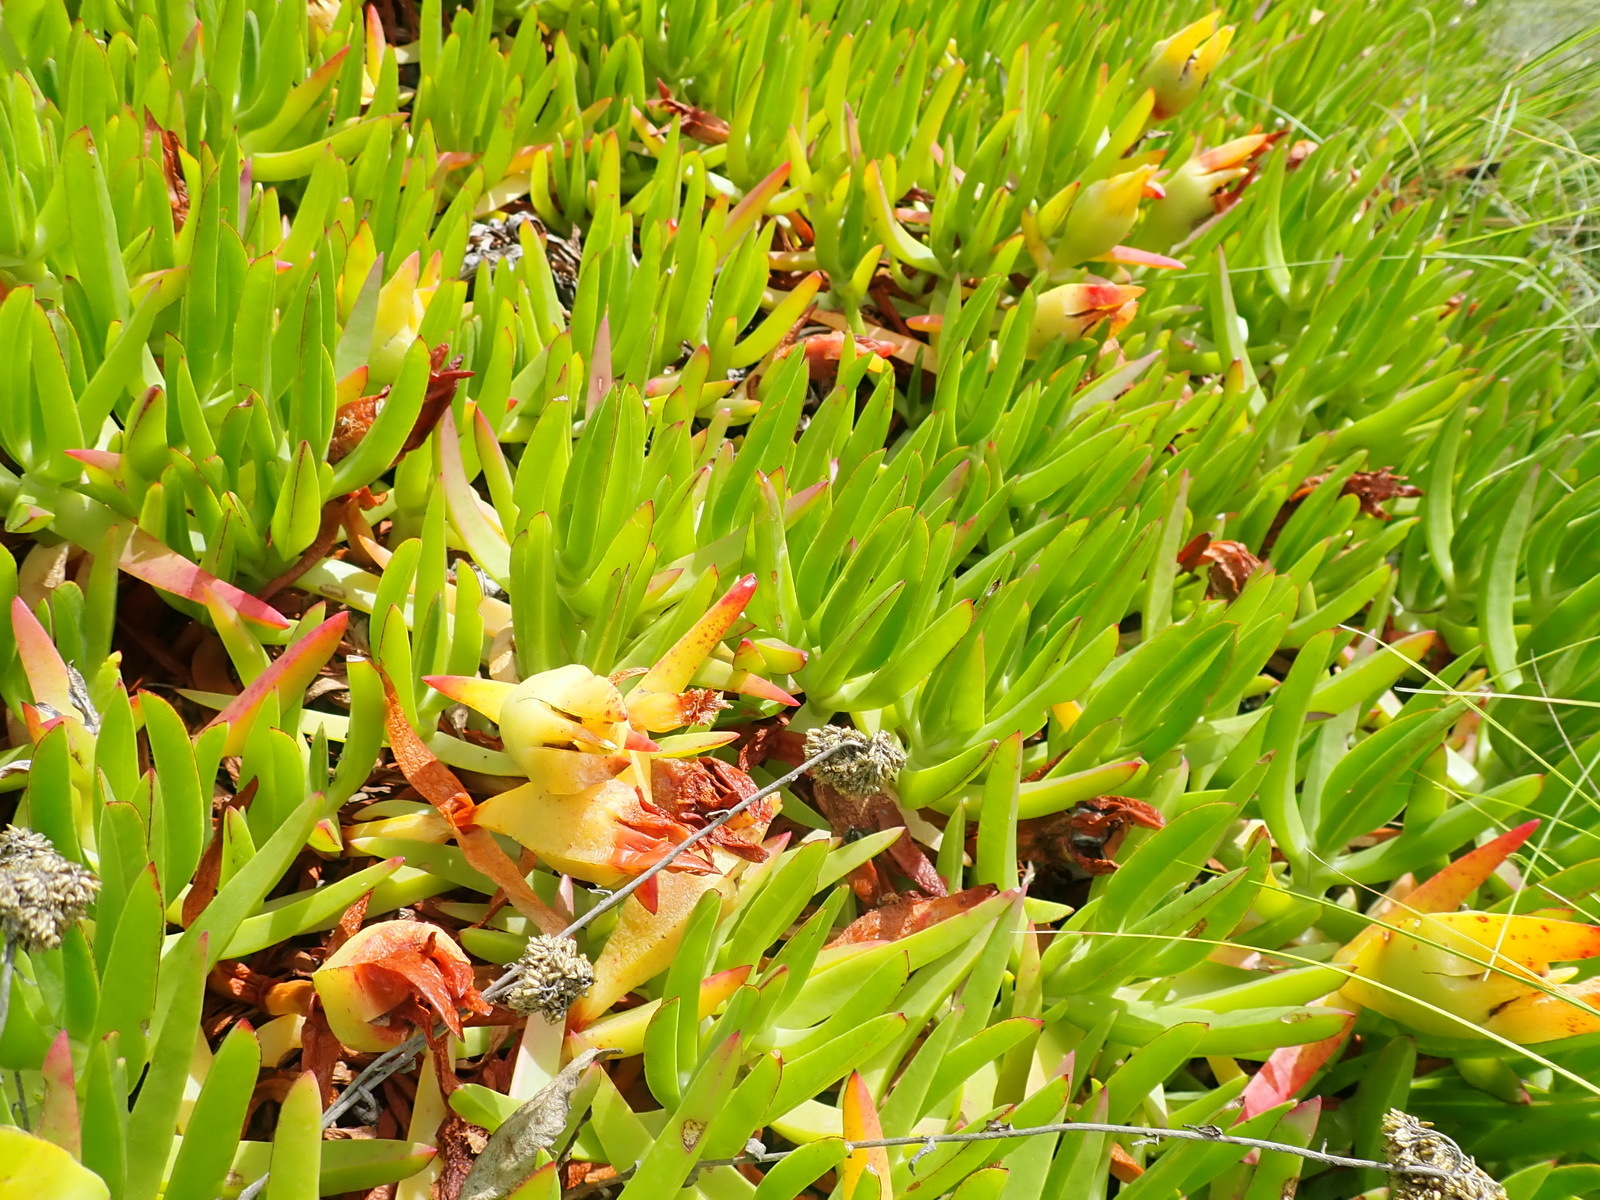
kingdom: Plantae
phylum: Tracheophyta
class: Magnoliopsida
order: Caryophyllales
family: Aizoaceae
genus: Carpobrotus
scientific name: Carpobrotus edulis
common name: Hottentot-fig
